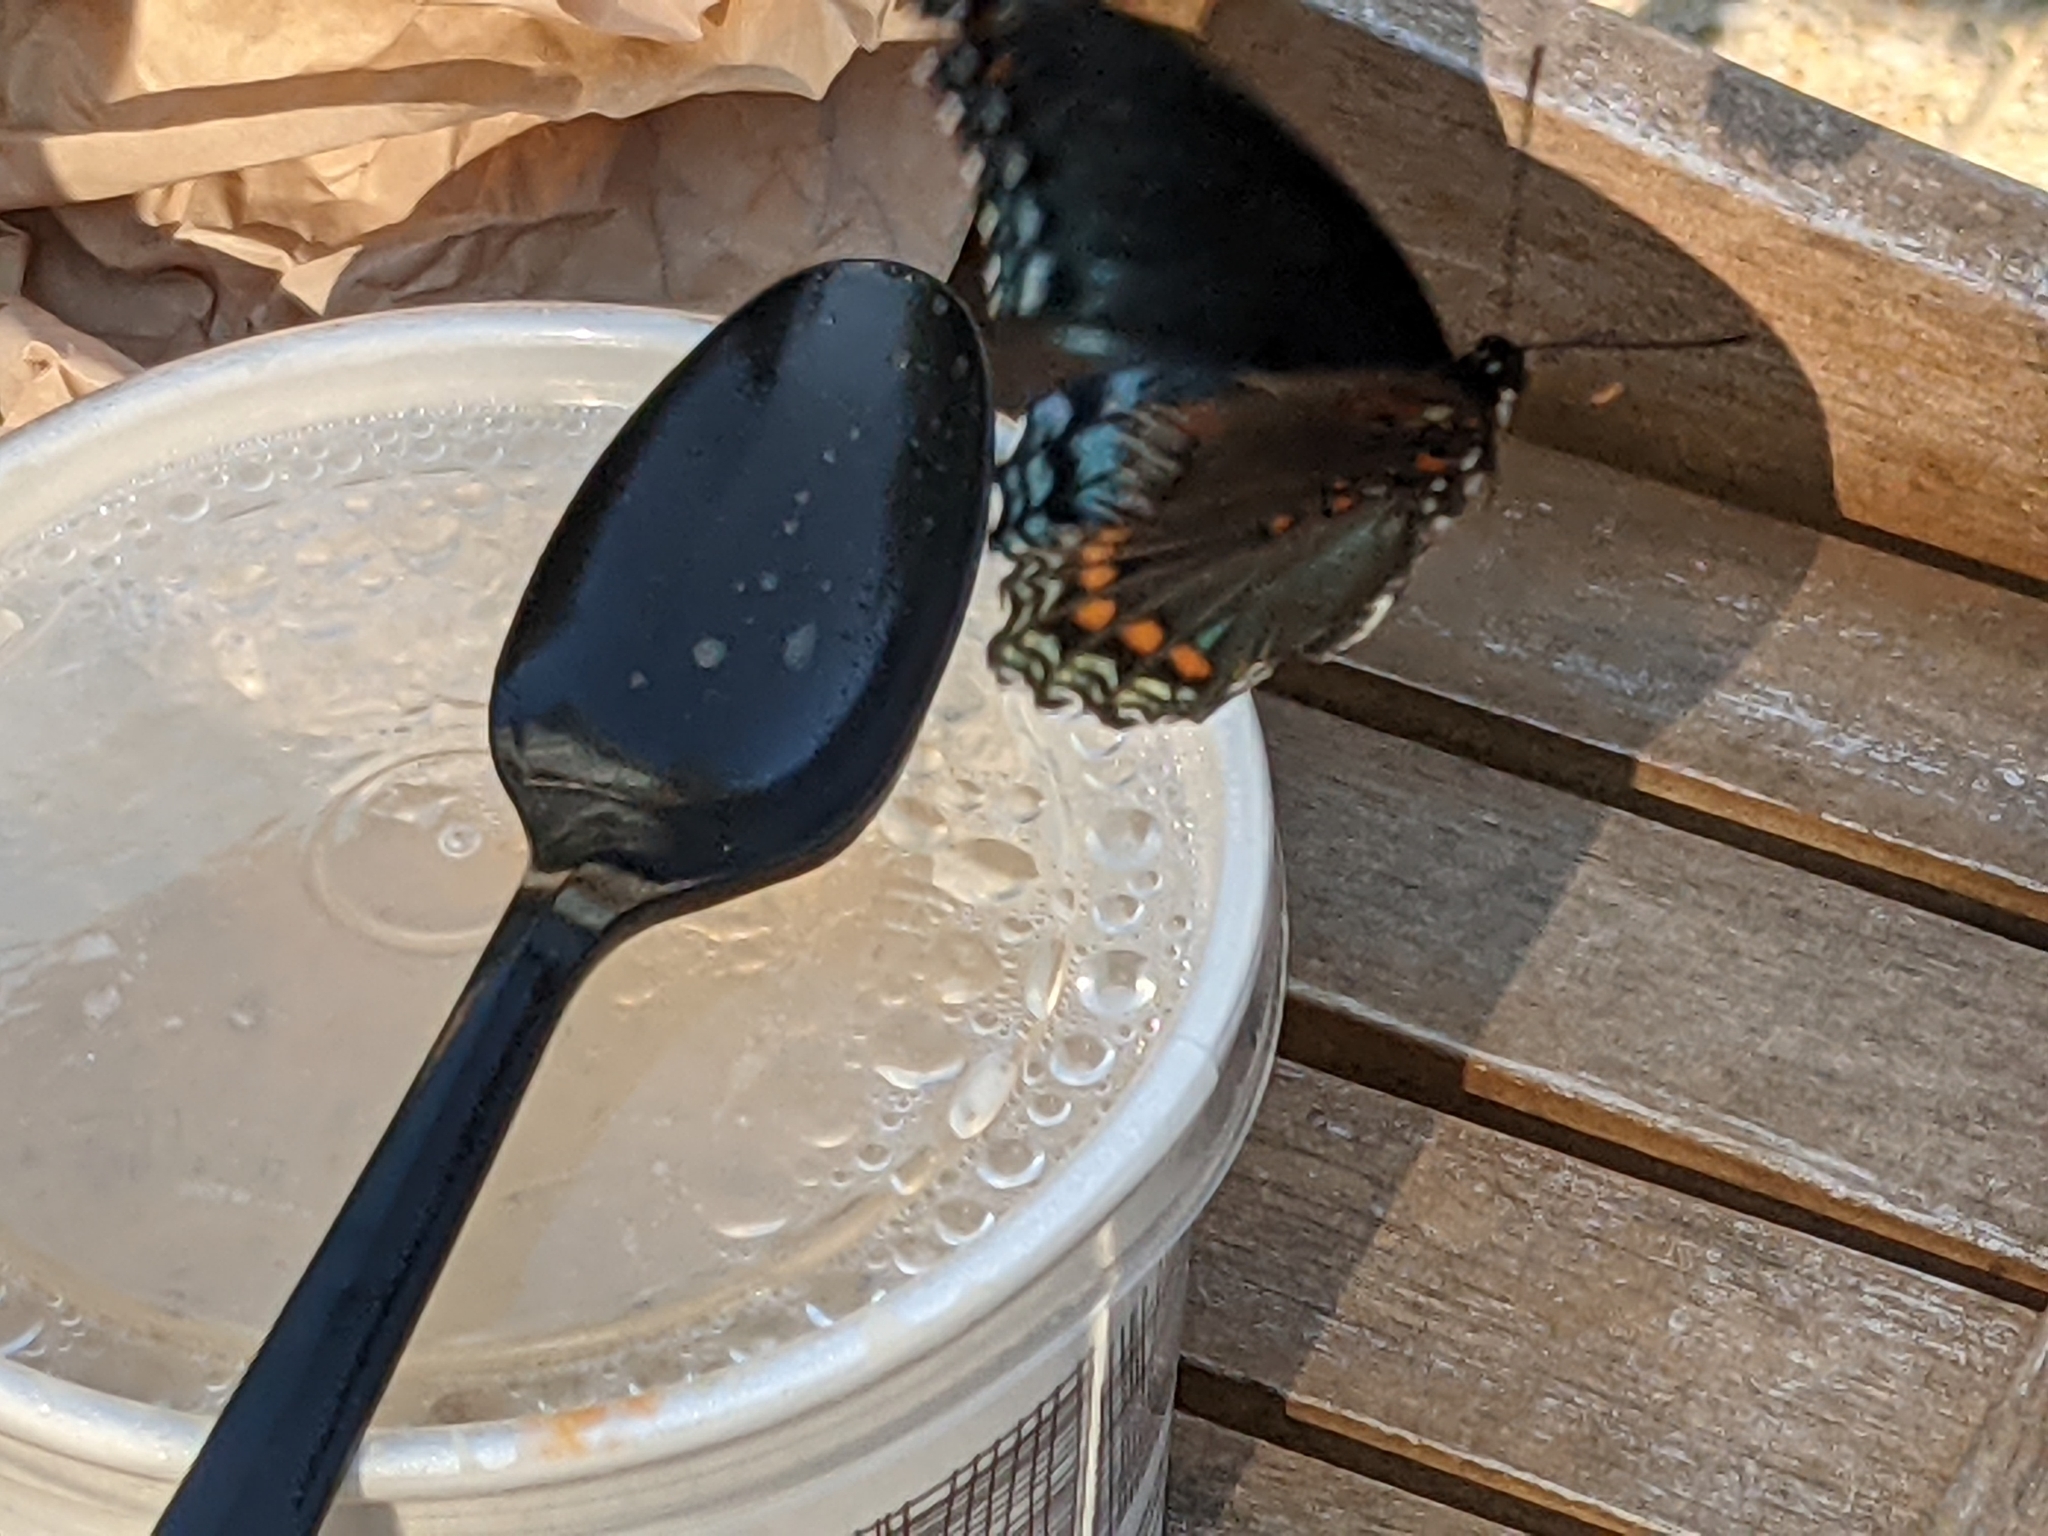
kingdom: Animalia
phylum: Arthropoda
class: Insecta
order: Lepidoptera
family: Nymphalidae
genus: Limenitis
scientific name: Limenitis arthemis
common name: Red-spotted admiral
